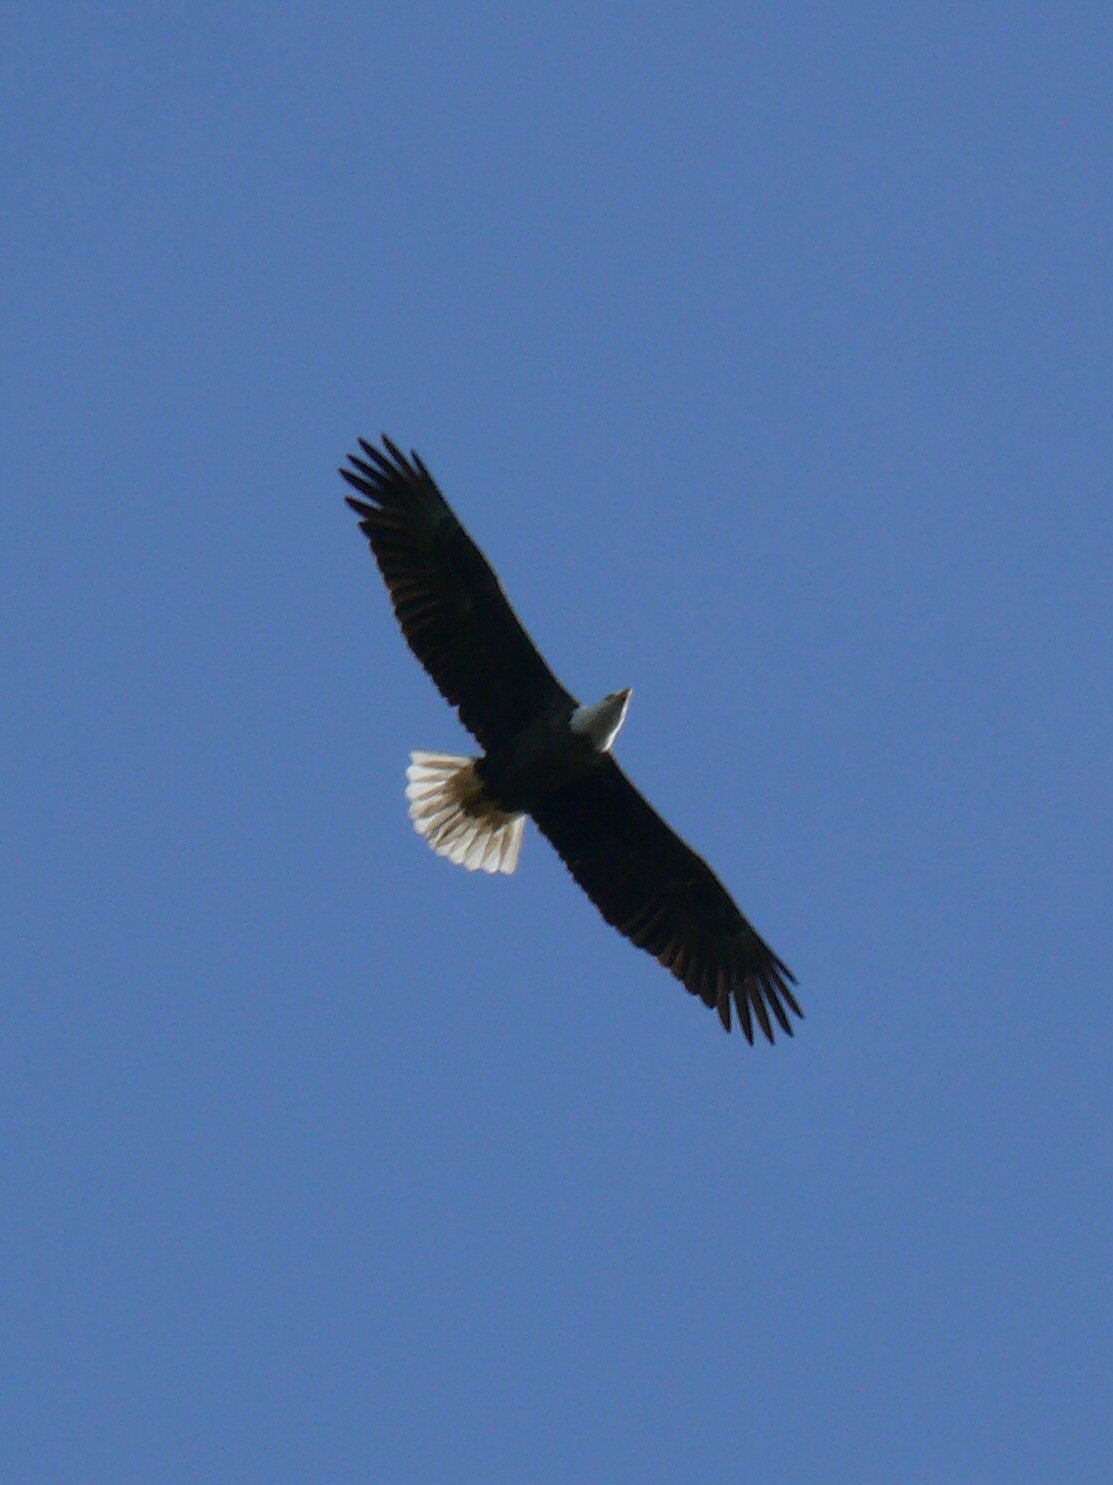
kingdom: Animalia
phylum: Chordata
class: Aves
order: Accipitriformes
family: Accipitridae
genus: Haliaeetus
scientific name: Haliaeetus leucocephalus
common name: Bald eagle
